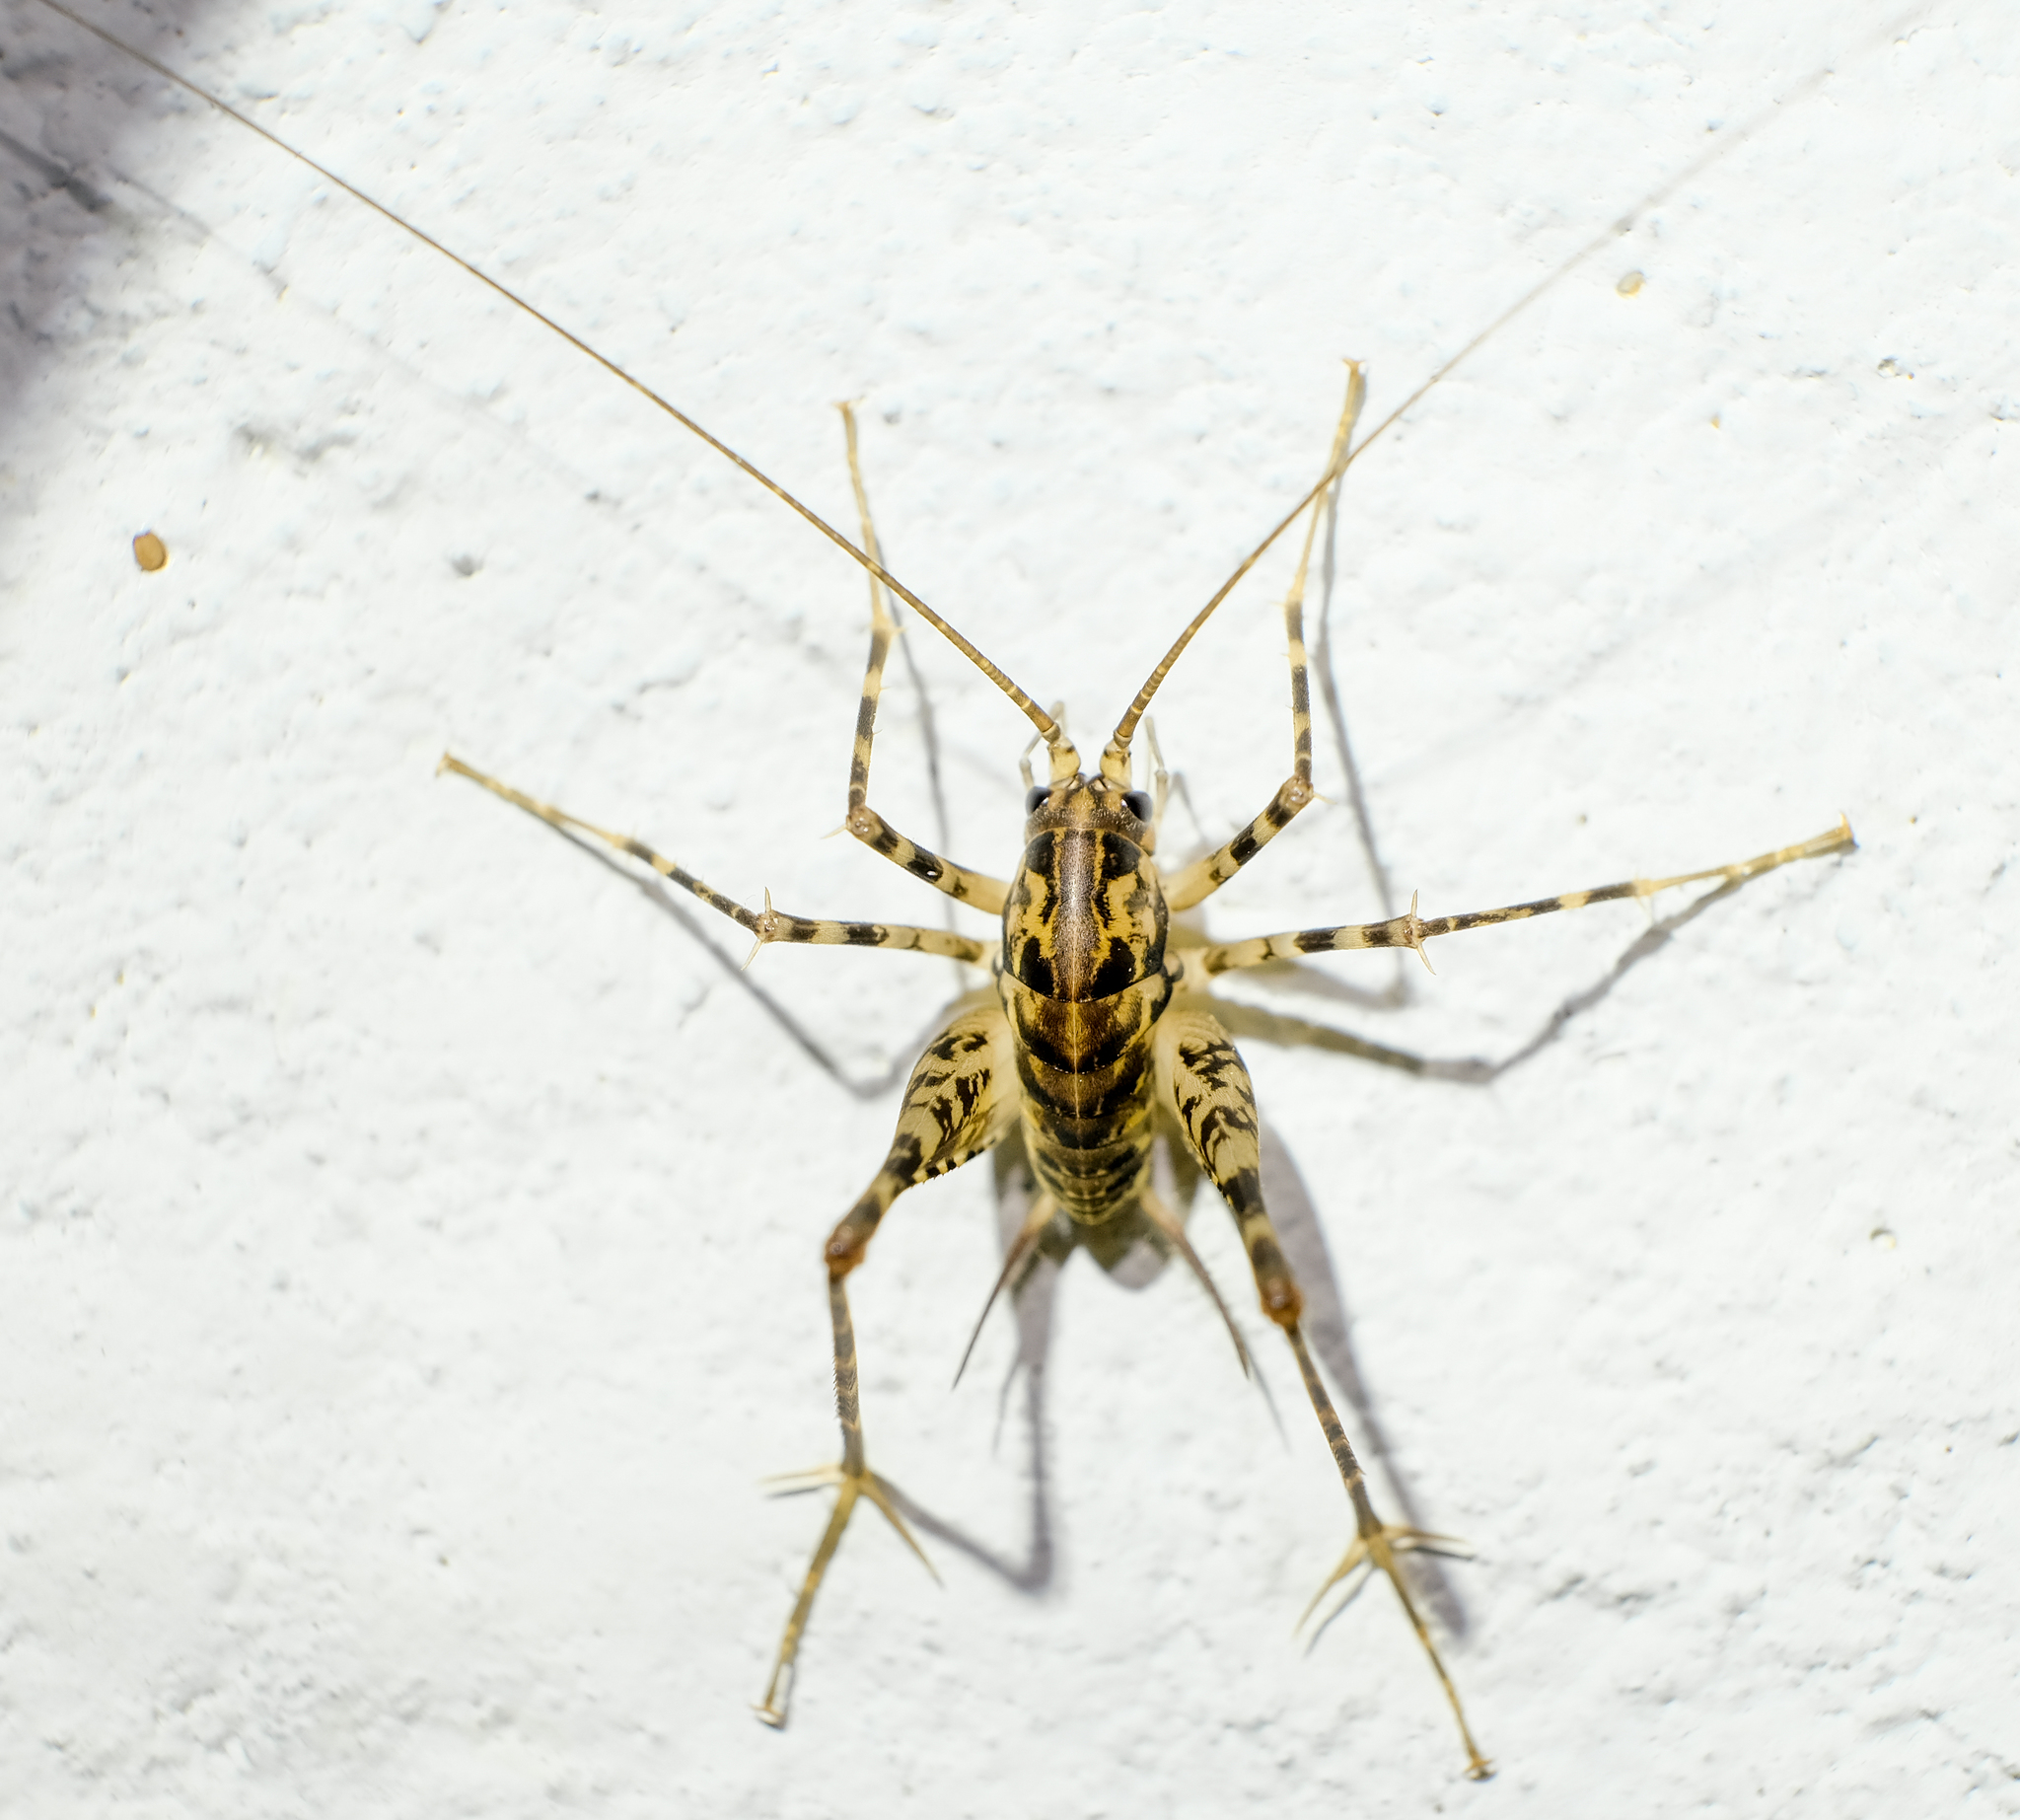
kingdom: Animalia
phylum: Arthropoda
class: Insecta
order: Orthoptera
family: Rhaphidophoridae
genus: Diestrammena
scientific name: Diestrammena japanica
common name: Japanese camel cricket
